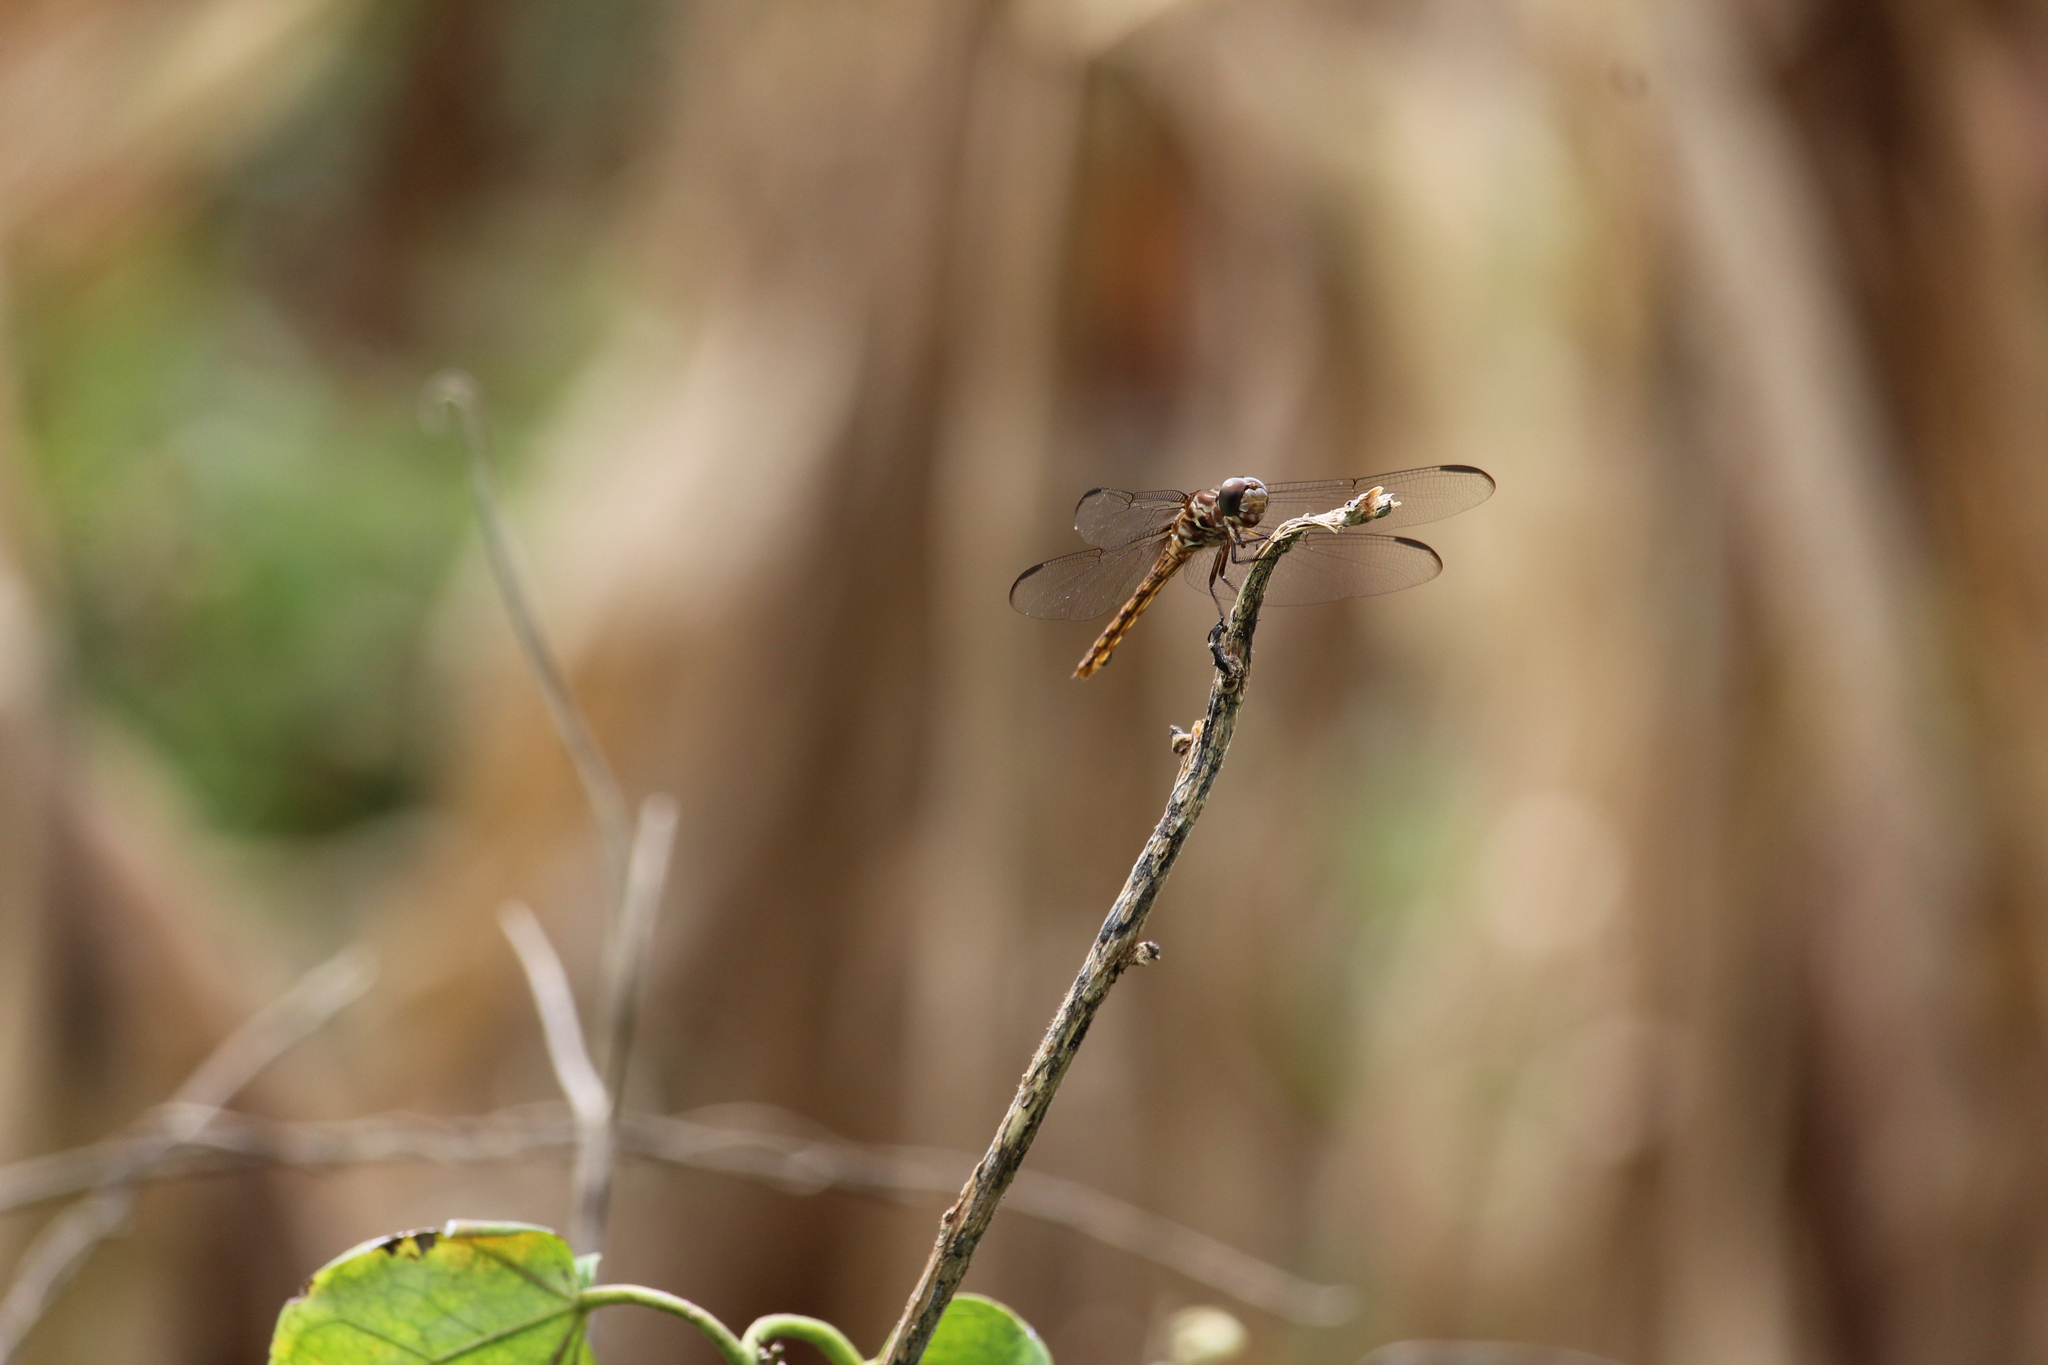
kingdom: Animalia
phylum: Arthropoda
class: Insecta
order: Odonata
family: Libellulidae
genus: Orthemis
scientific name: Orthemis ferruginea
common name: Roseate skimmer
